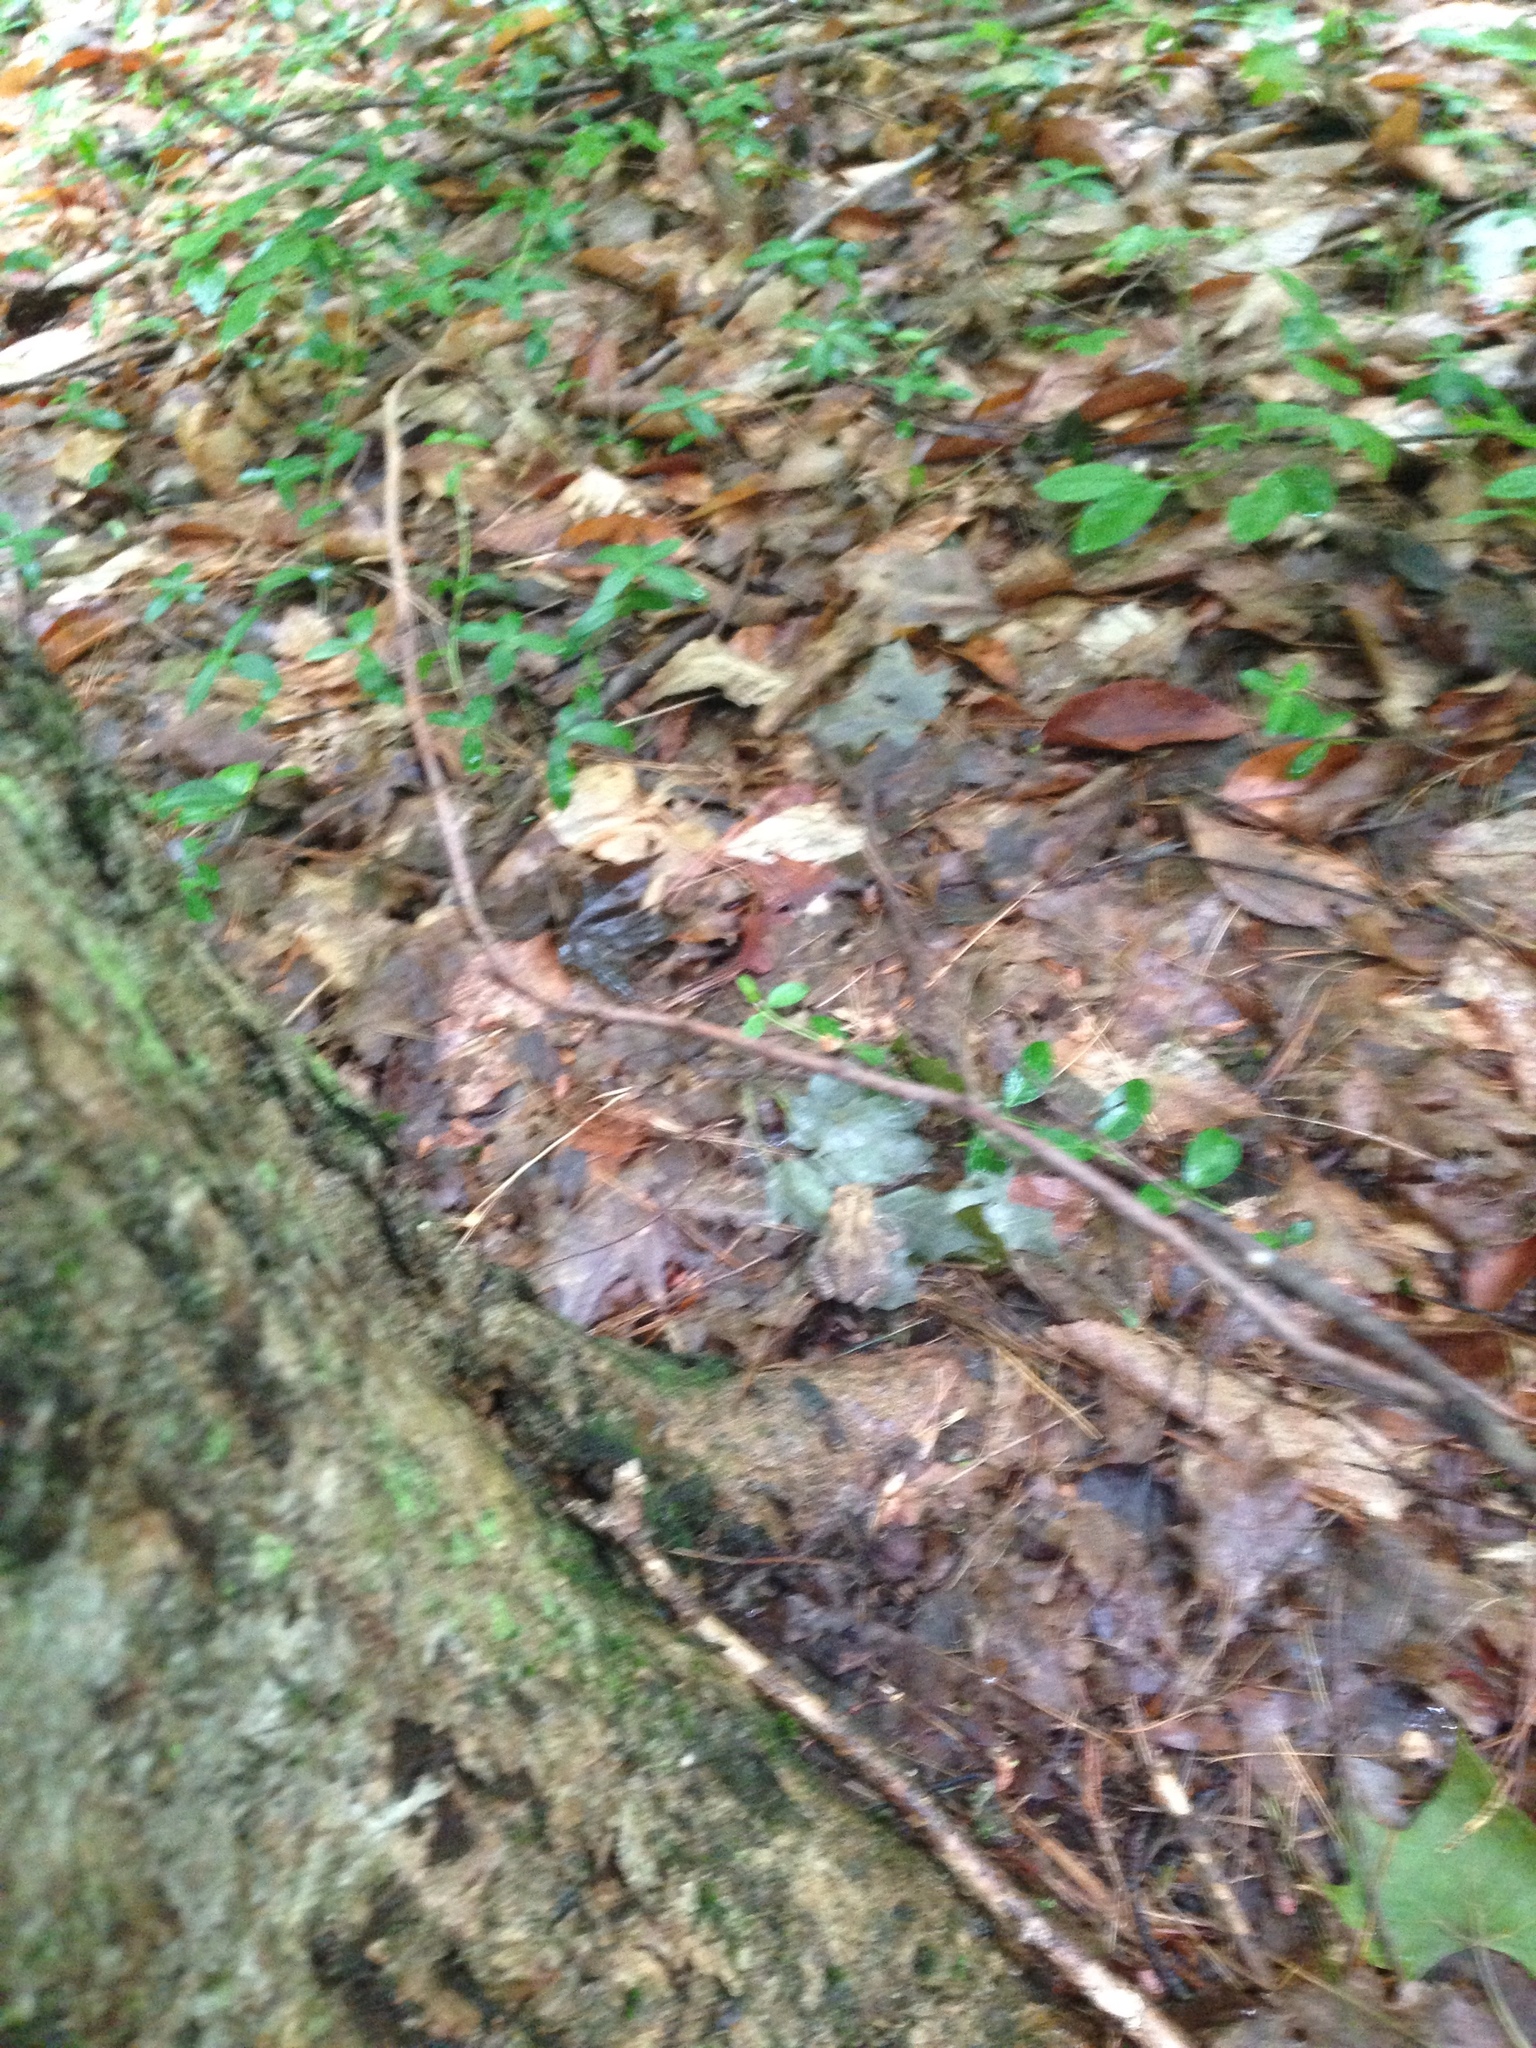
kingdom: Animalia
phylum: Chordata
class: Amphibia
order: Anura
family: Bufonidae
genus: Anaxyrus
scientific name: Anaxyrus americanus
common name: American toad
